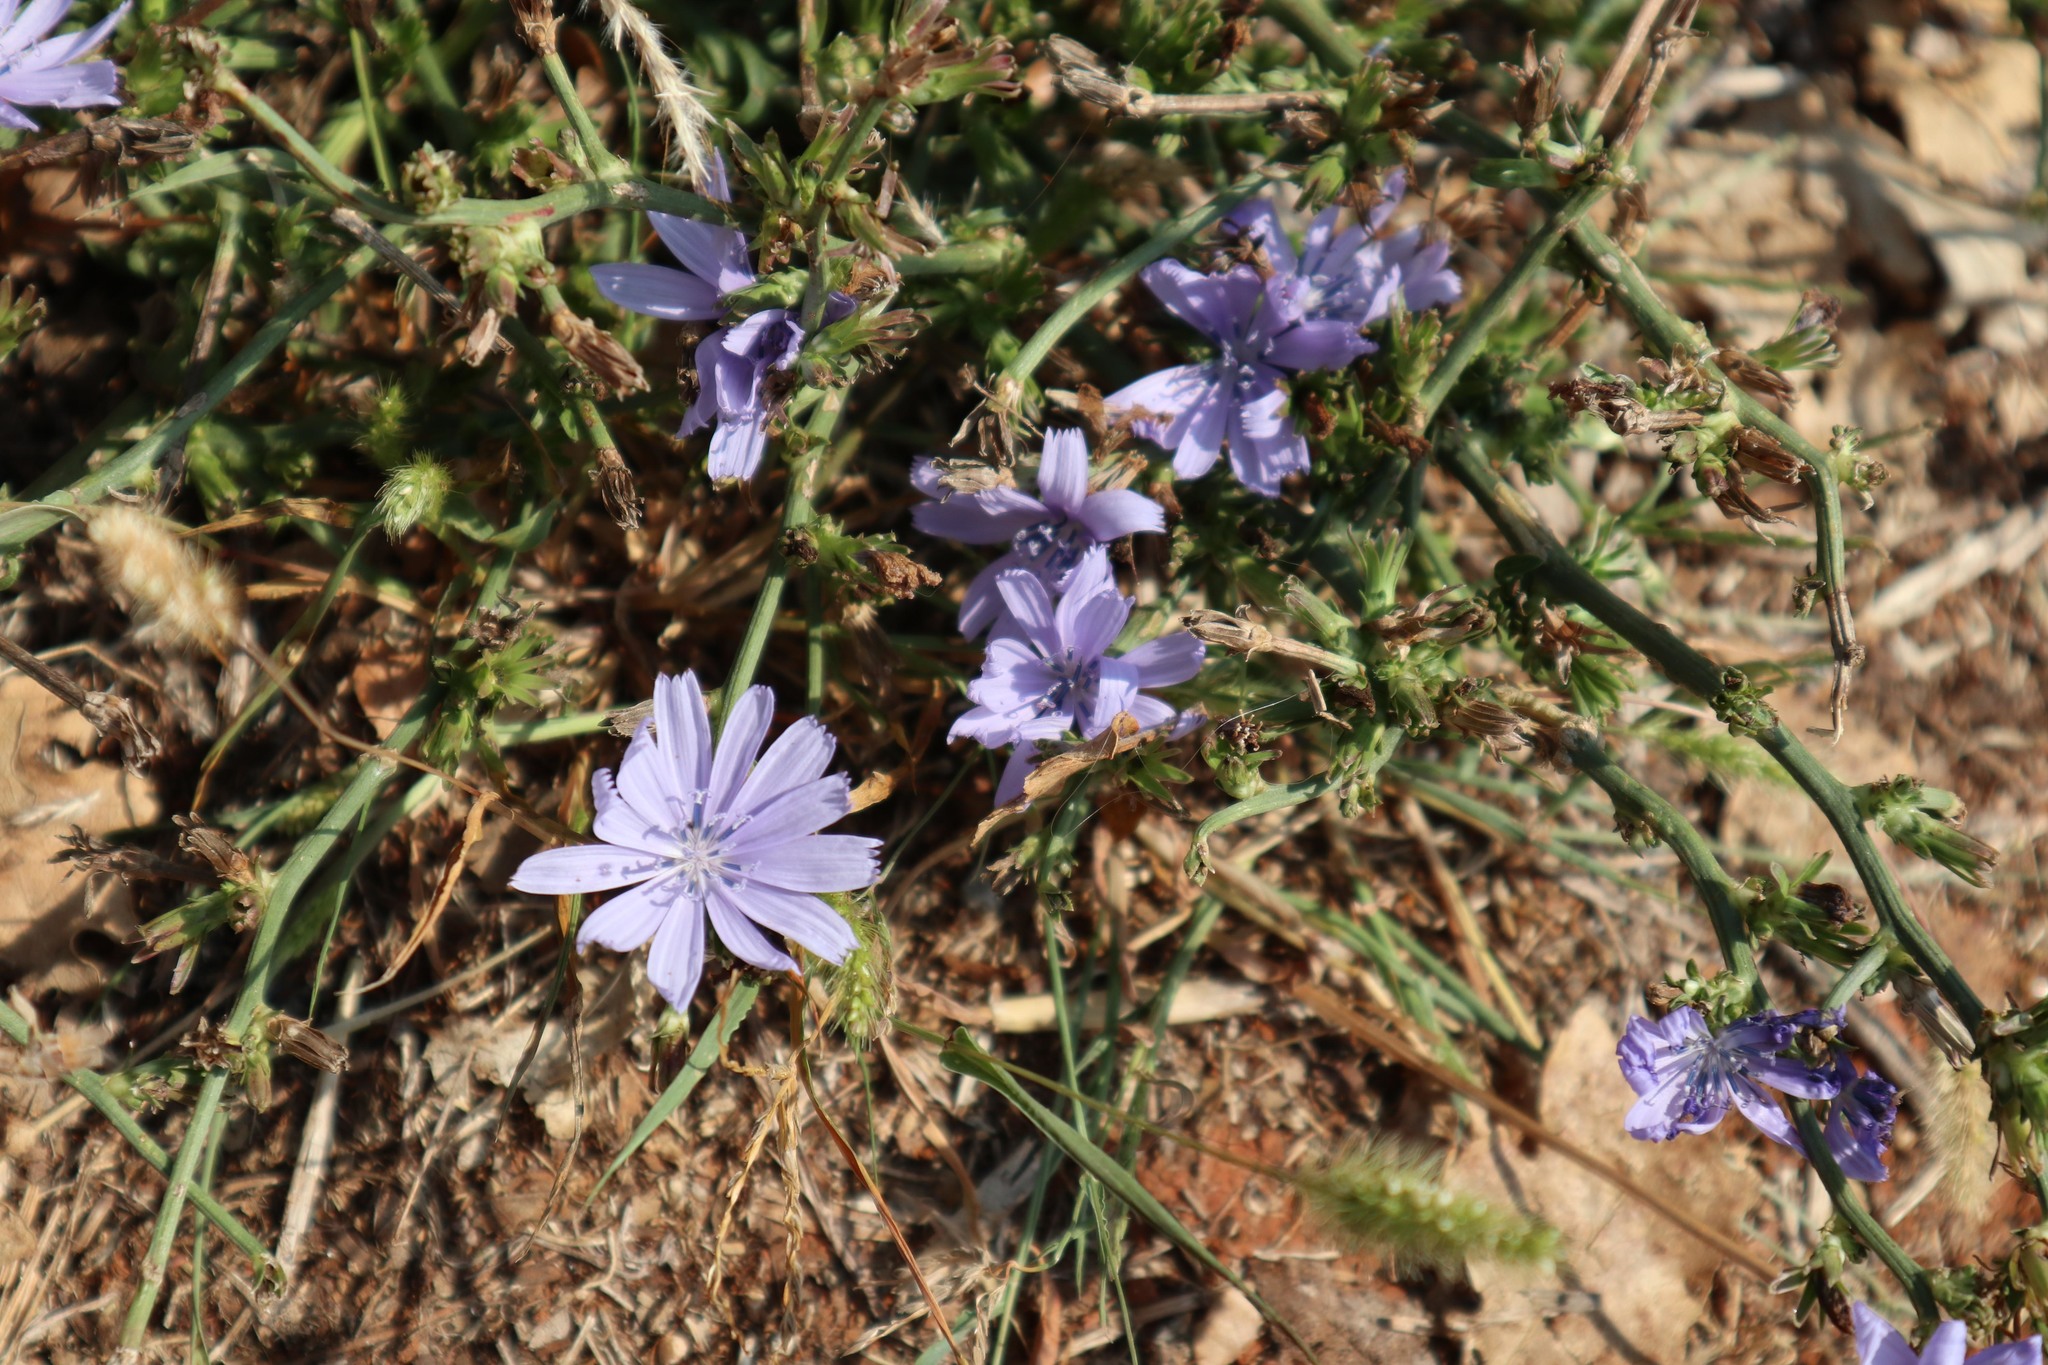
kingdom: Plantae
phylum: Tracheophyta
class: Magnoliopsida
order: Asterales
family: Asteraceae
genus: Cichorium
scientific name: Cichorium intybus
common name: Chicory
